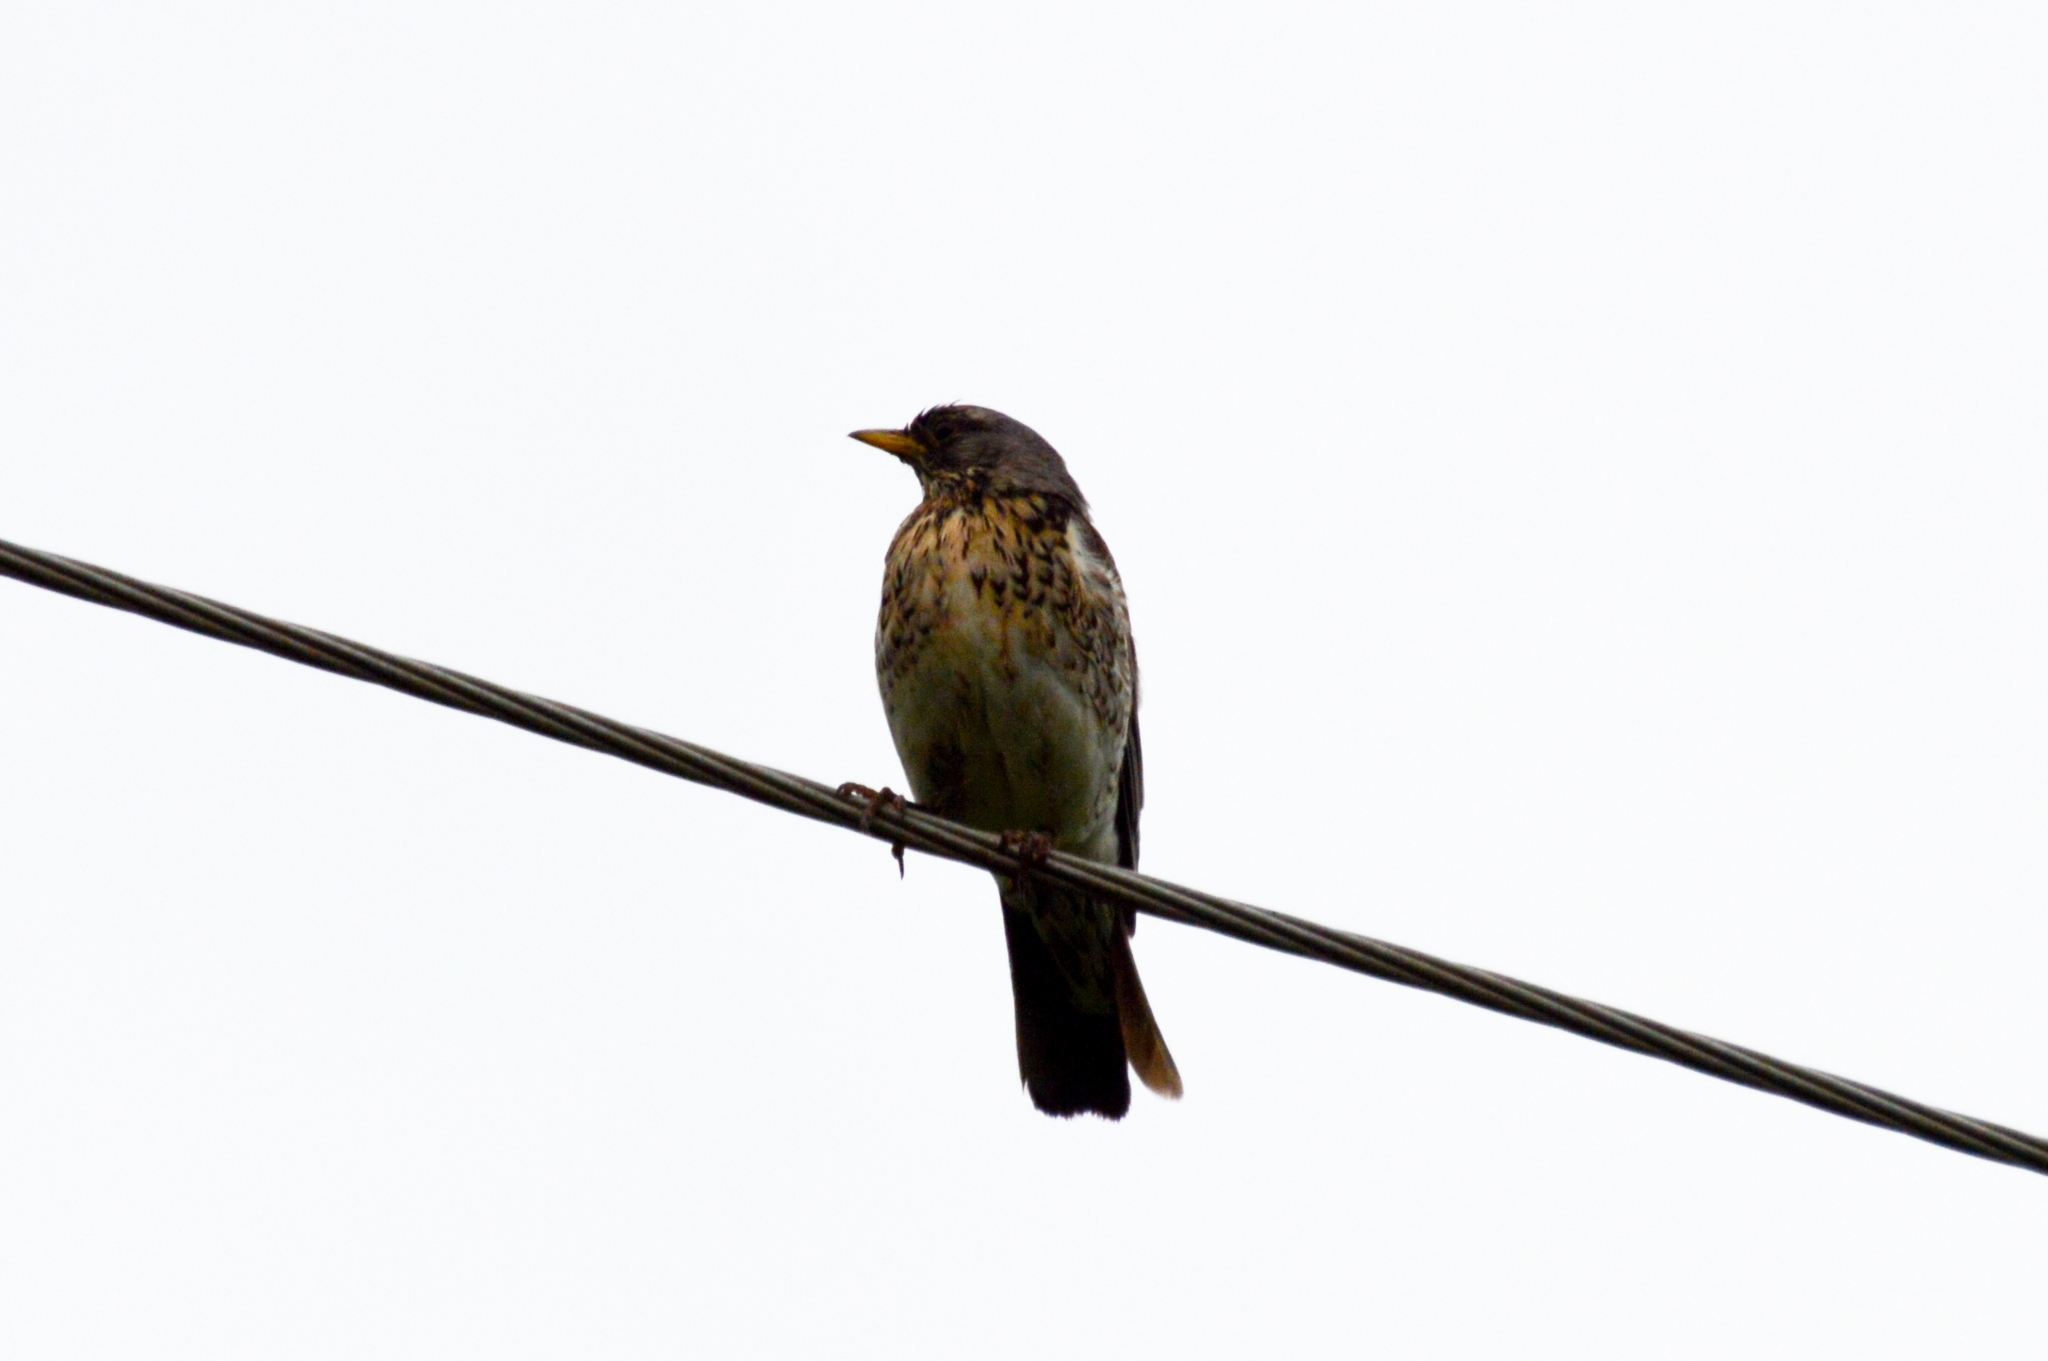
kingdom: Animalia
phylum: Chordata
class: Aves
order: Passeriformes
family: Turdidae
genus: Turdus
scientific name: Turdus pilaris
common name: Fieldfare
